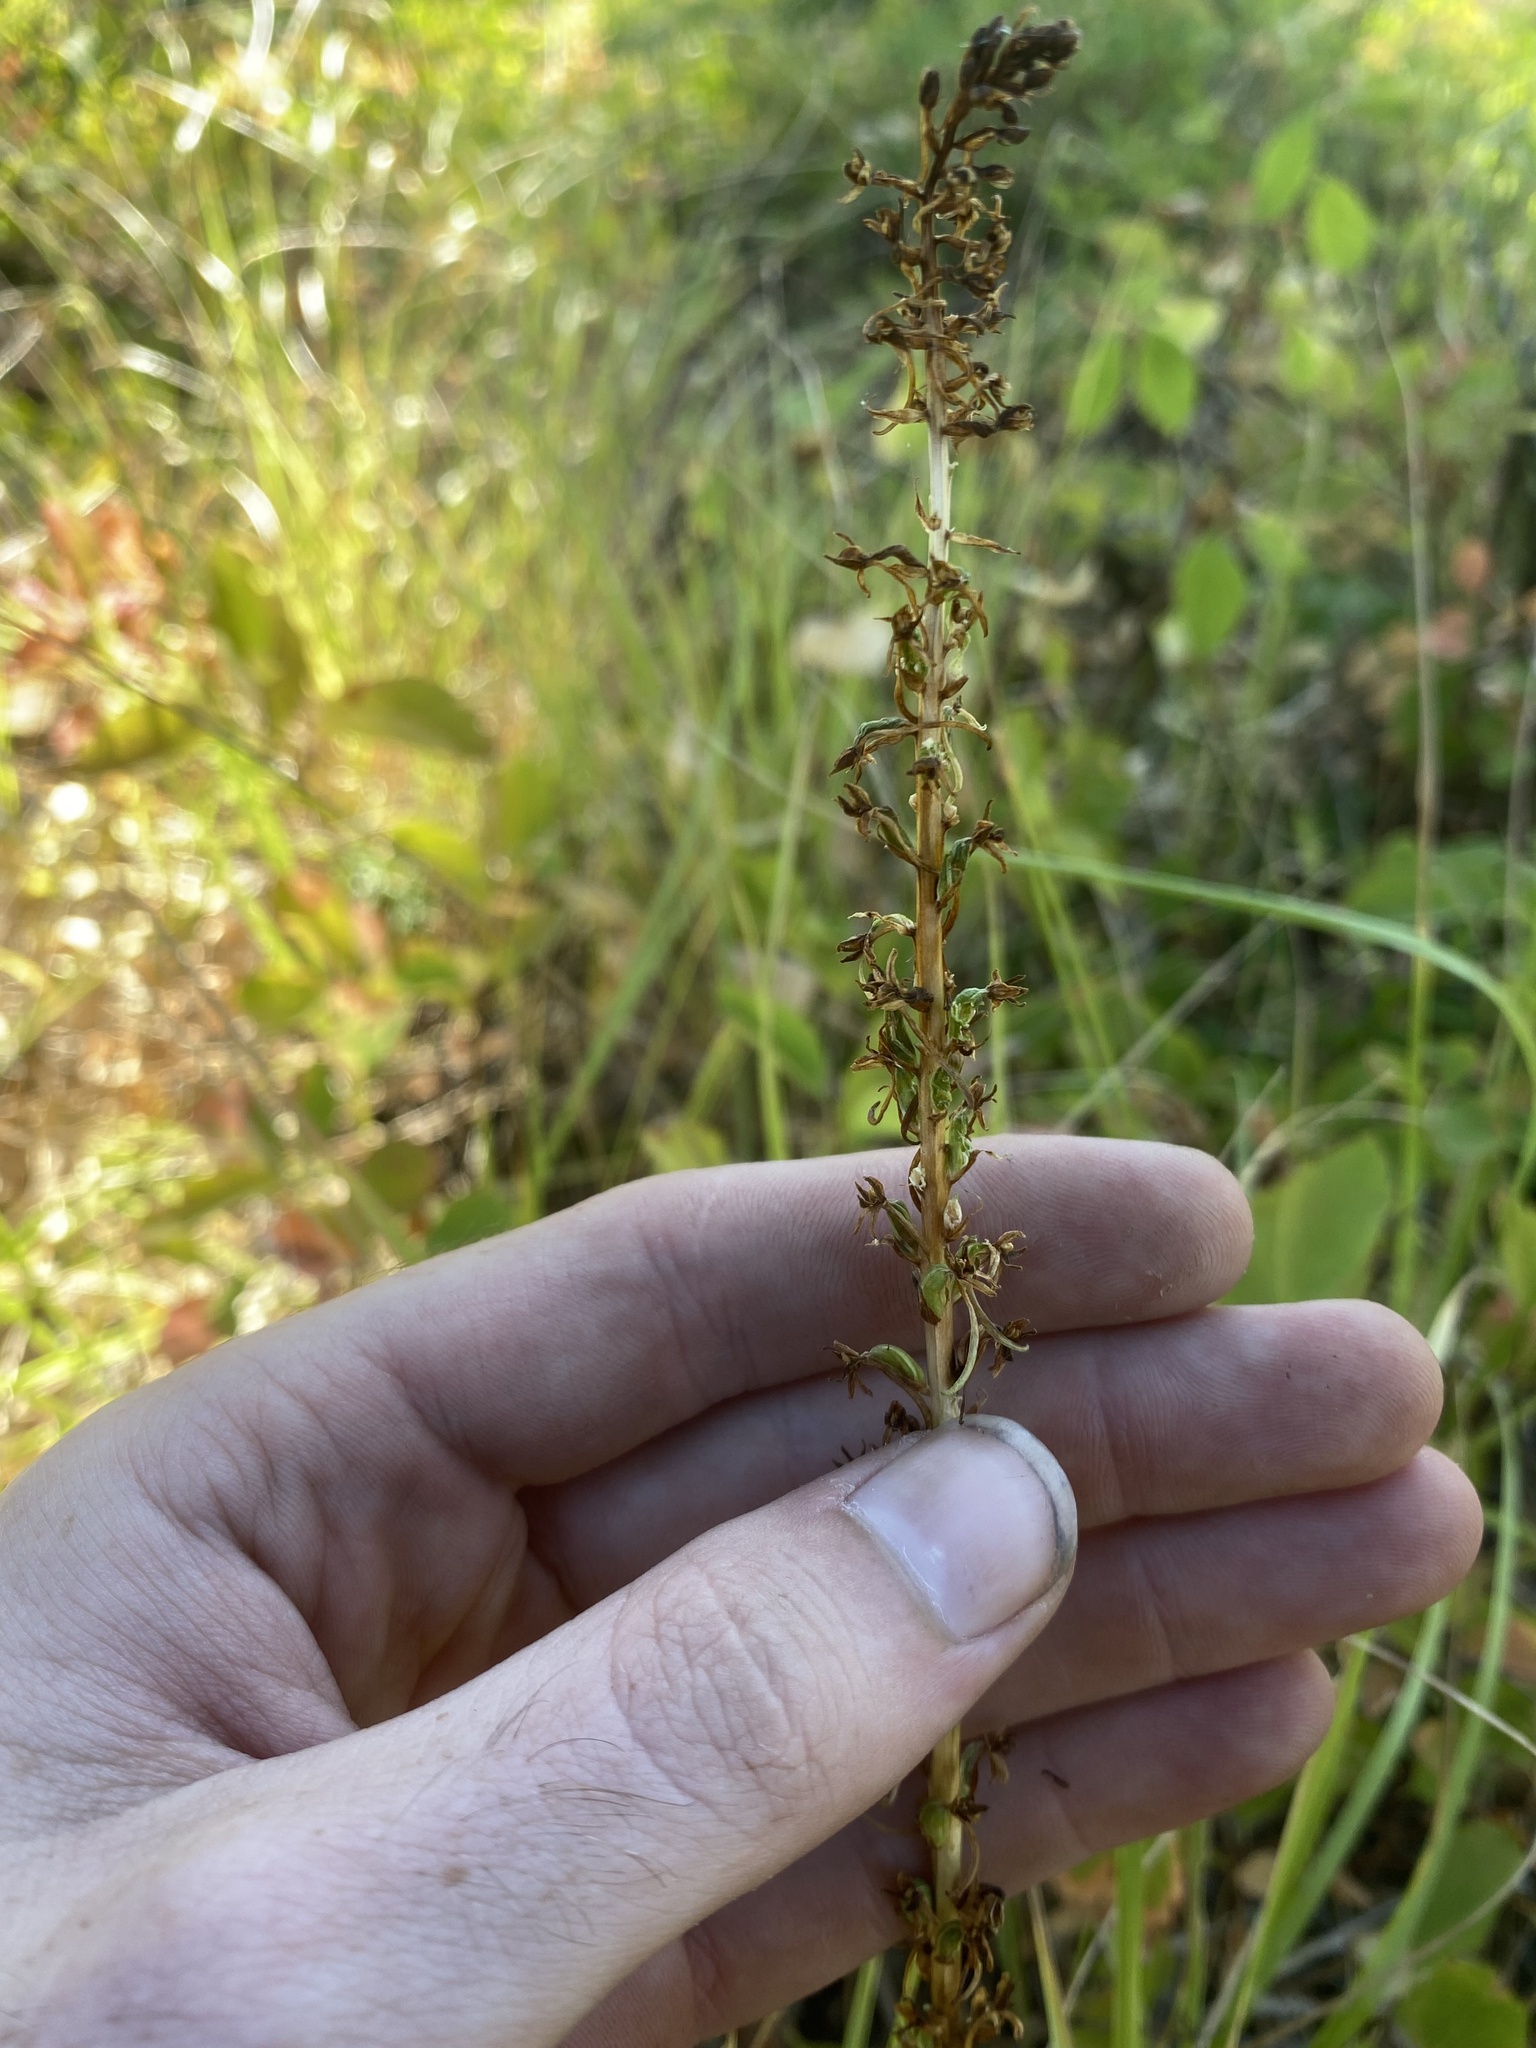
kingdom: Plantae
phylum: Tracheophyta
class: Liliopsida
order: Asparagales
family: Orchidaceae
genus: Platanthera
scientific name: Platanthera elongata
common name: Dense-flowered rein orchid
